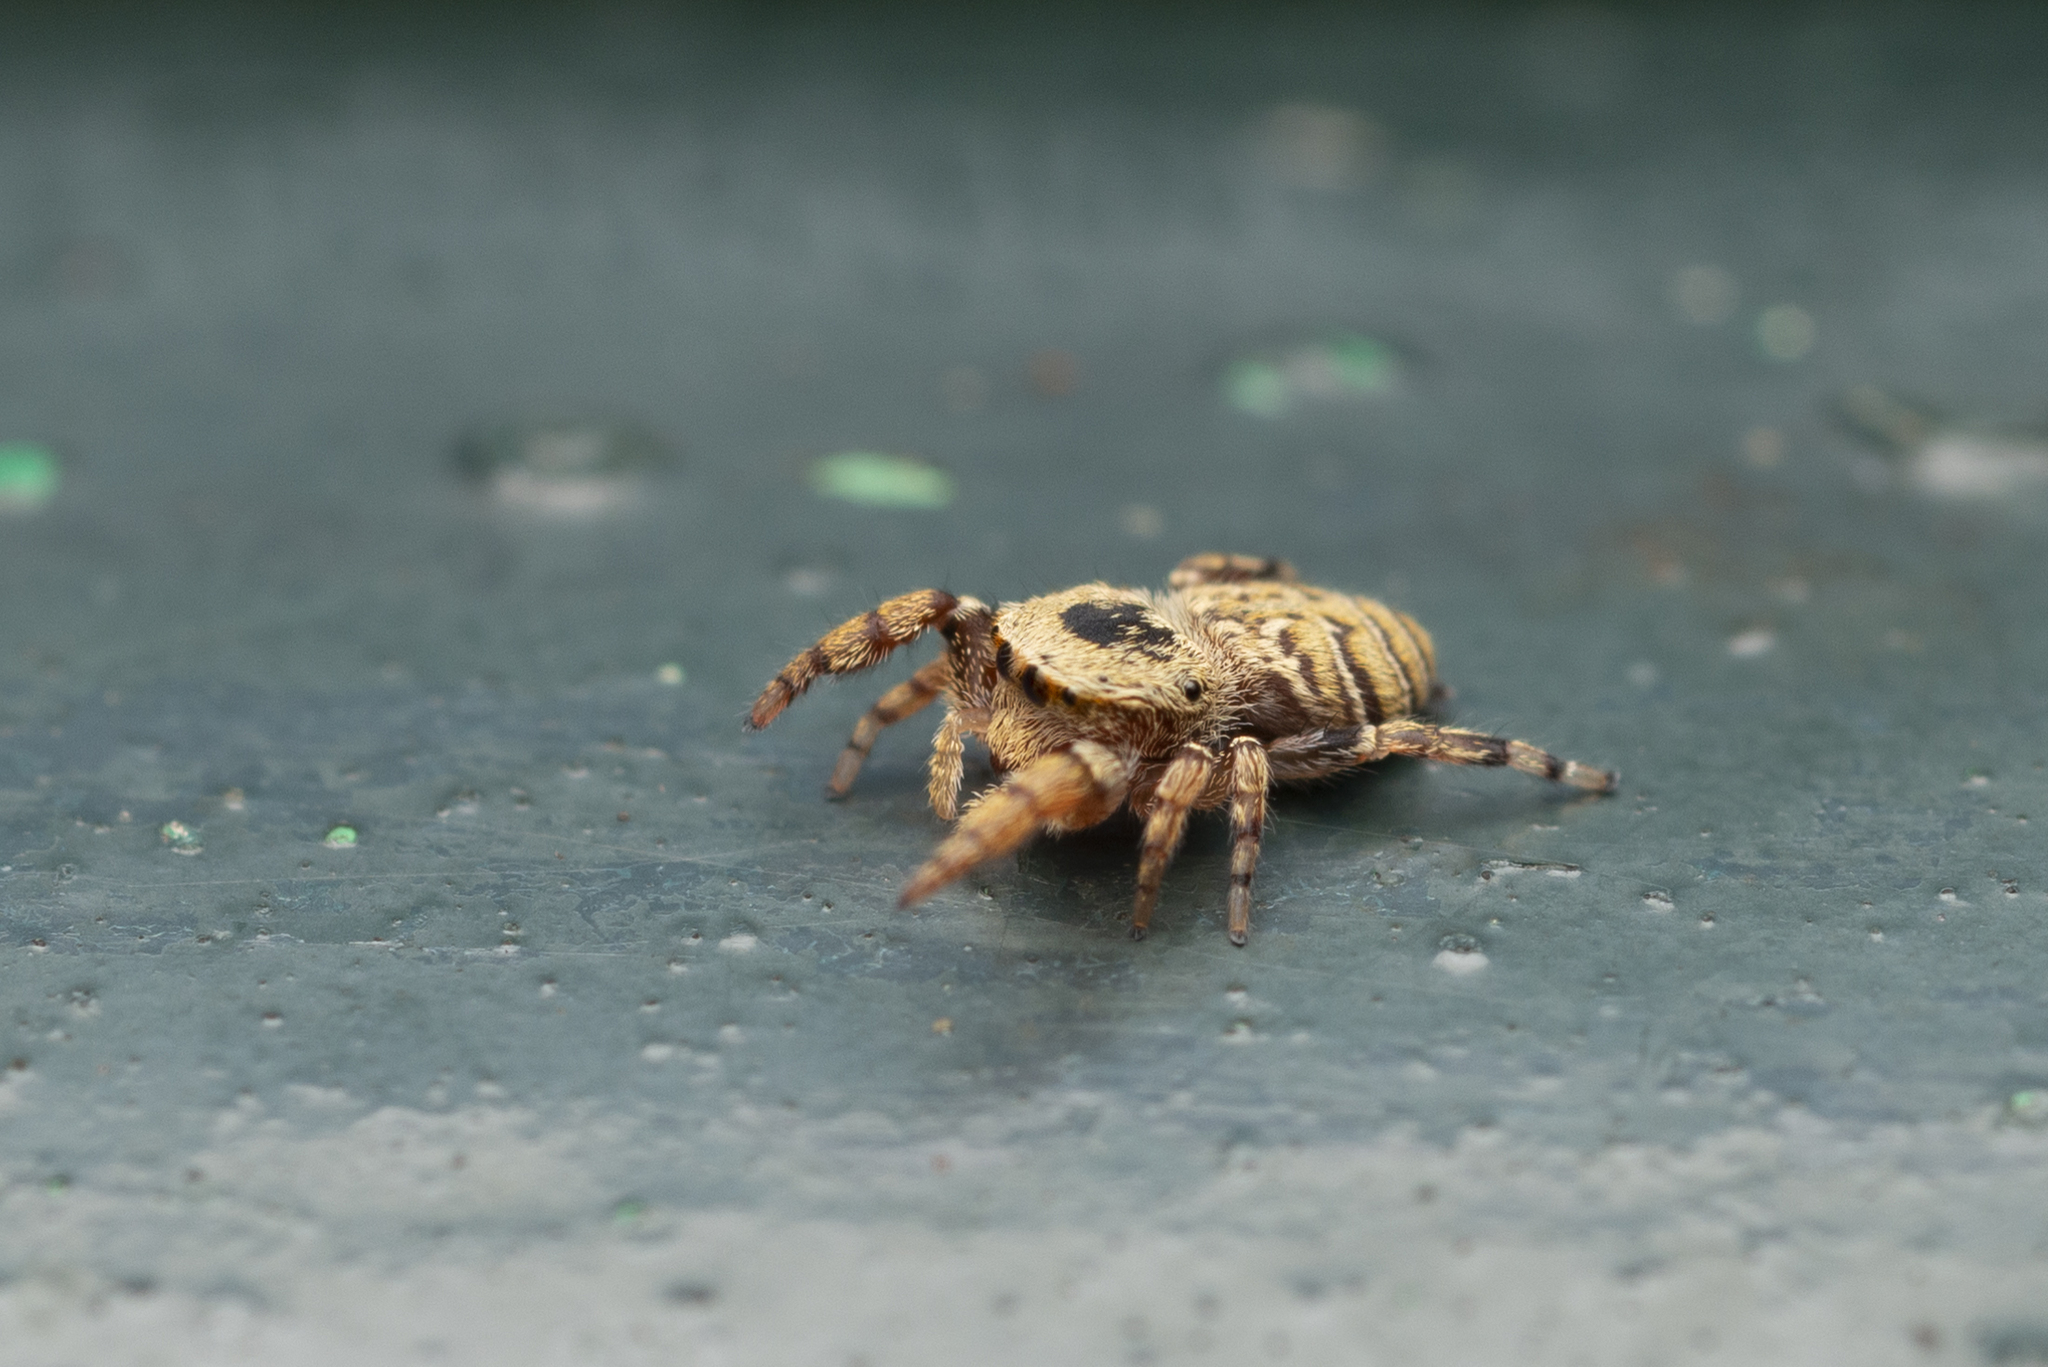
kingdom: Animalia
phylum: Arthropoda
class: Arachnida
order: Araneae
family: Salticidae
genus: Rhene
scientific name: Rhene flavicomans
